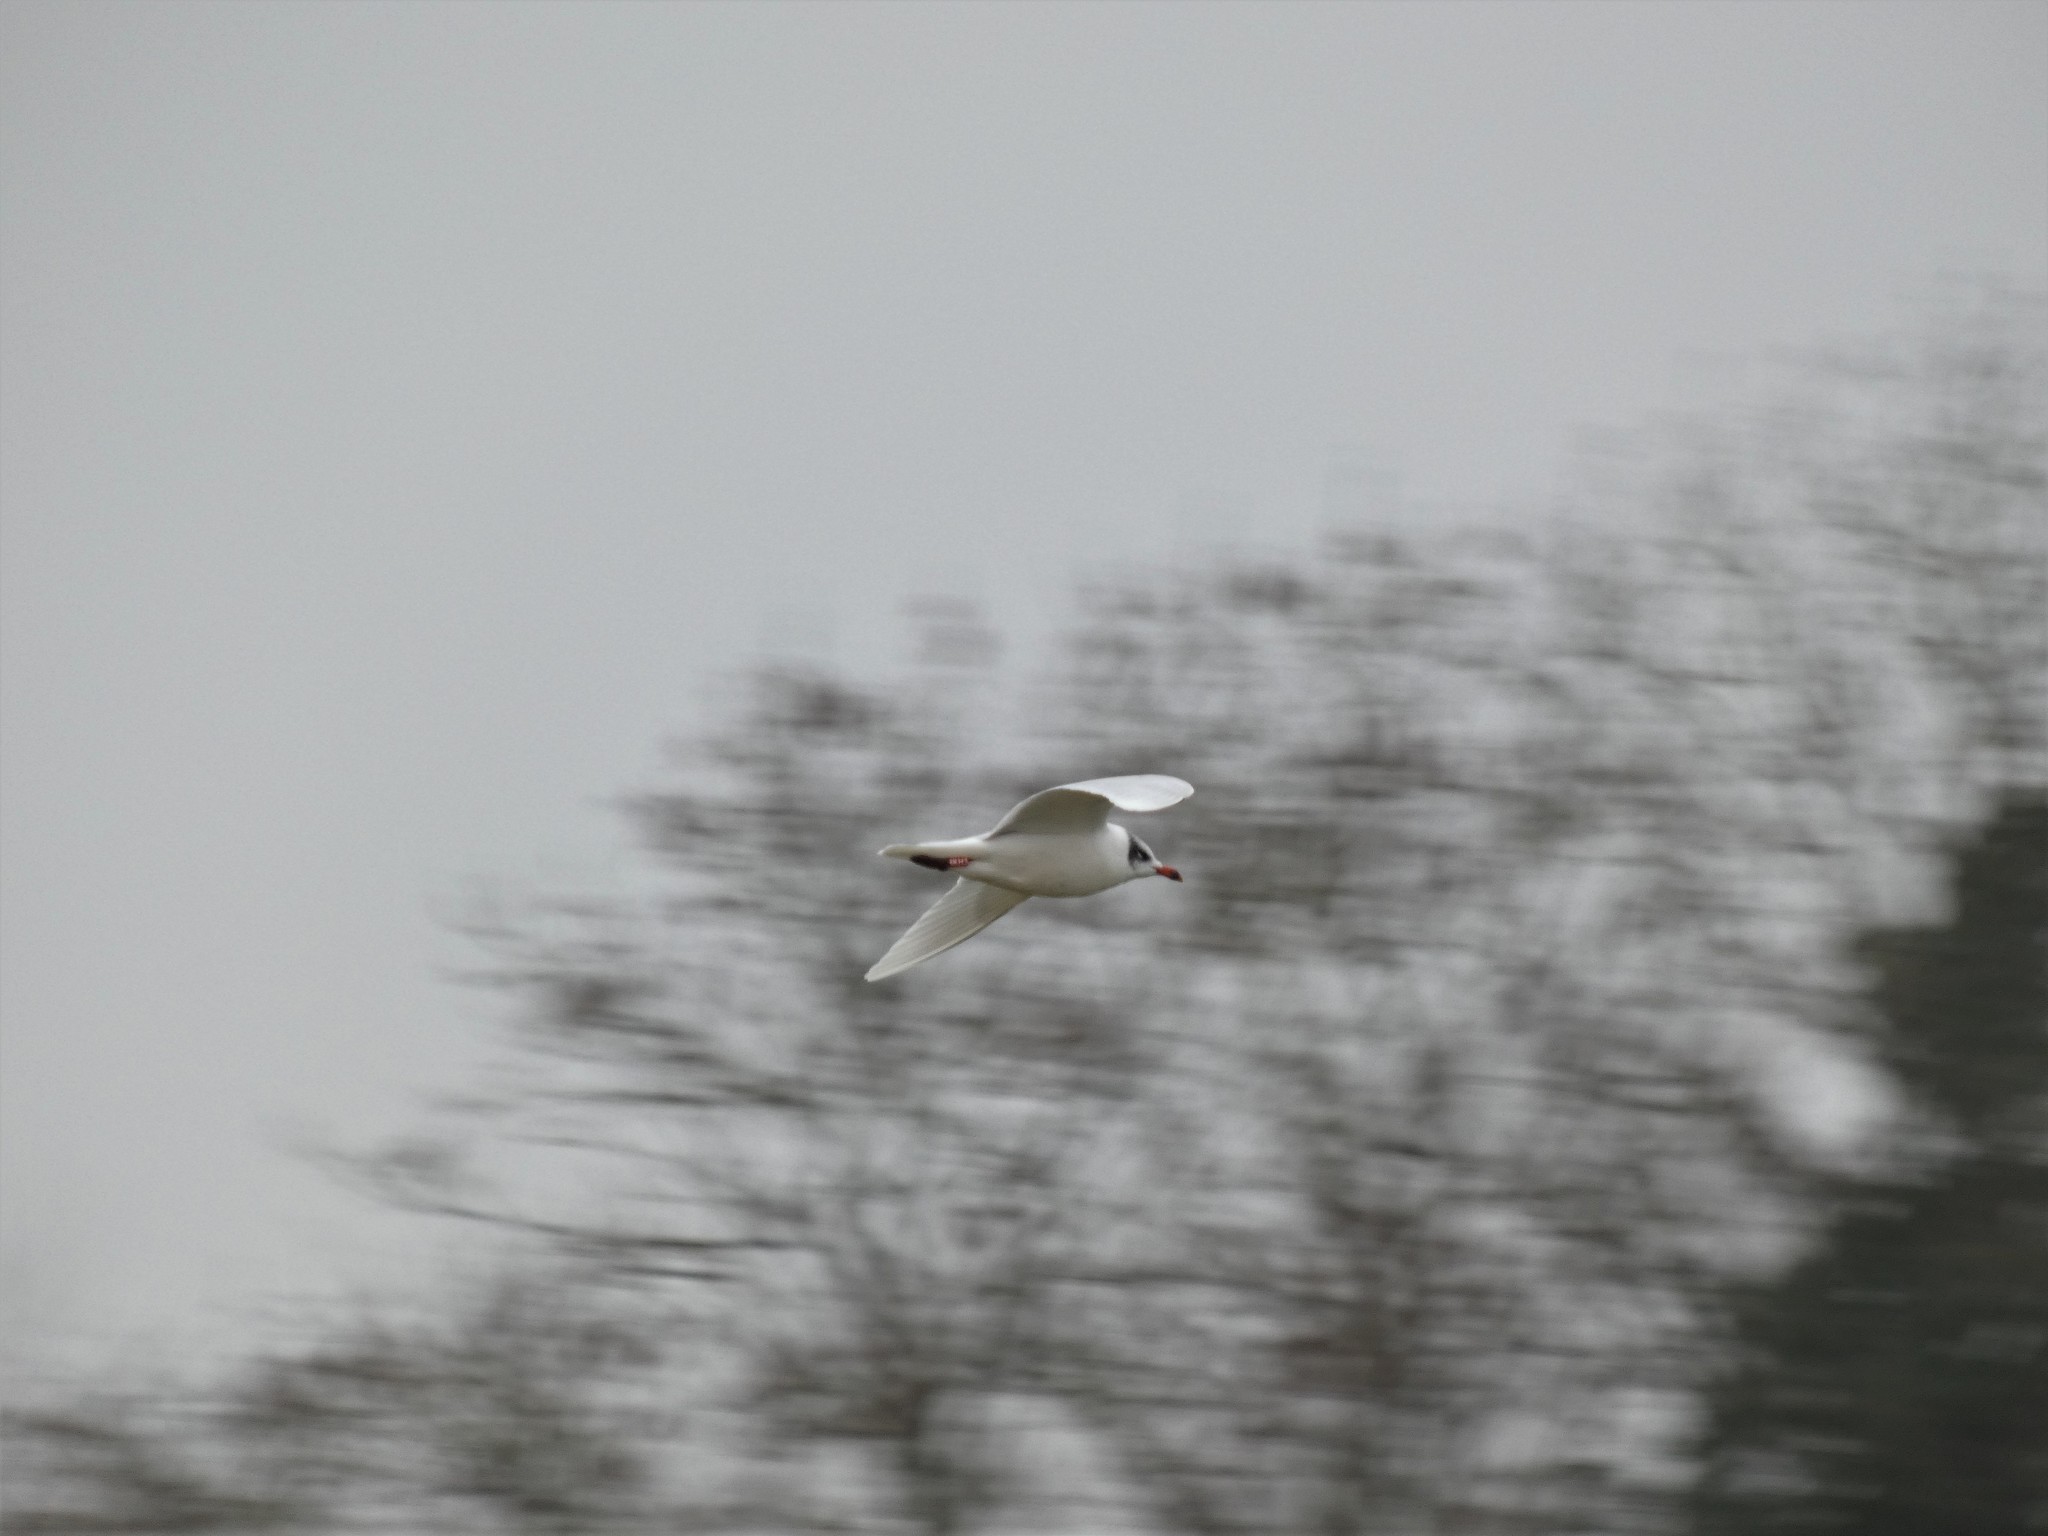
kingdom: Animalia
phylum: Chordata
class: Aves
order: Charadriiformes
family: Laridae
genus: Ichthyaetus
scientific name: Ichthyaetus melanocephalus
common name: Mediterranean gull
